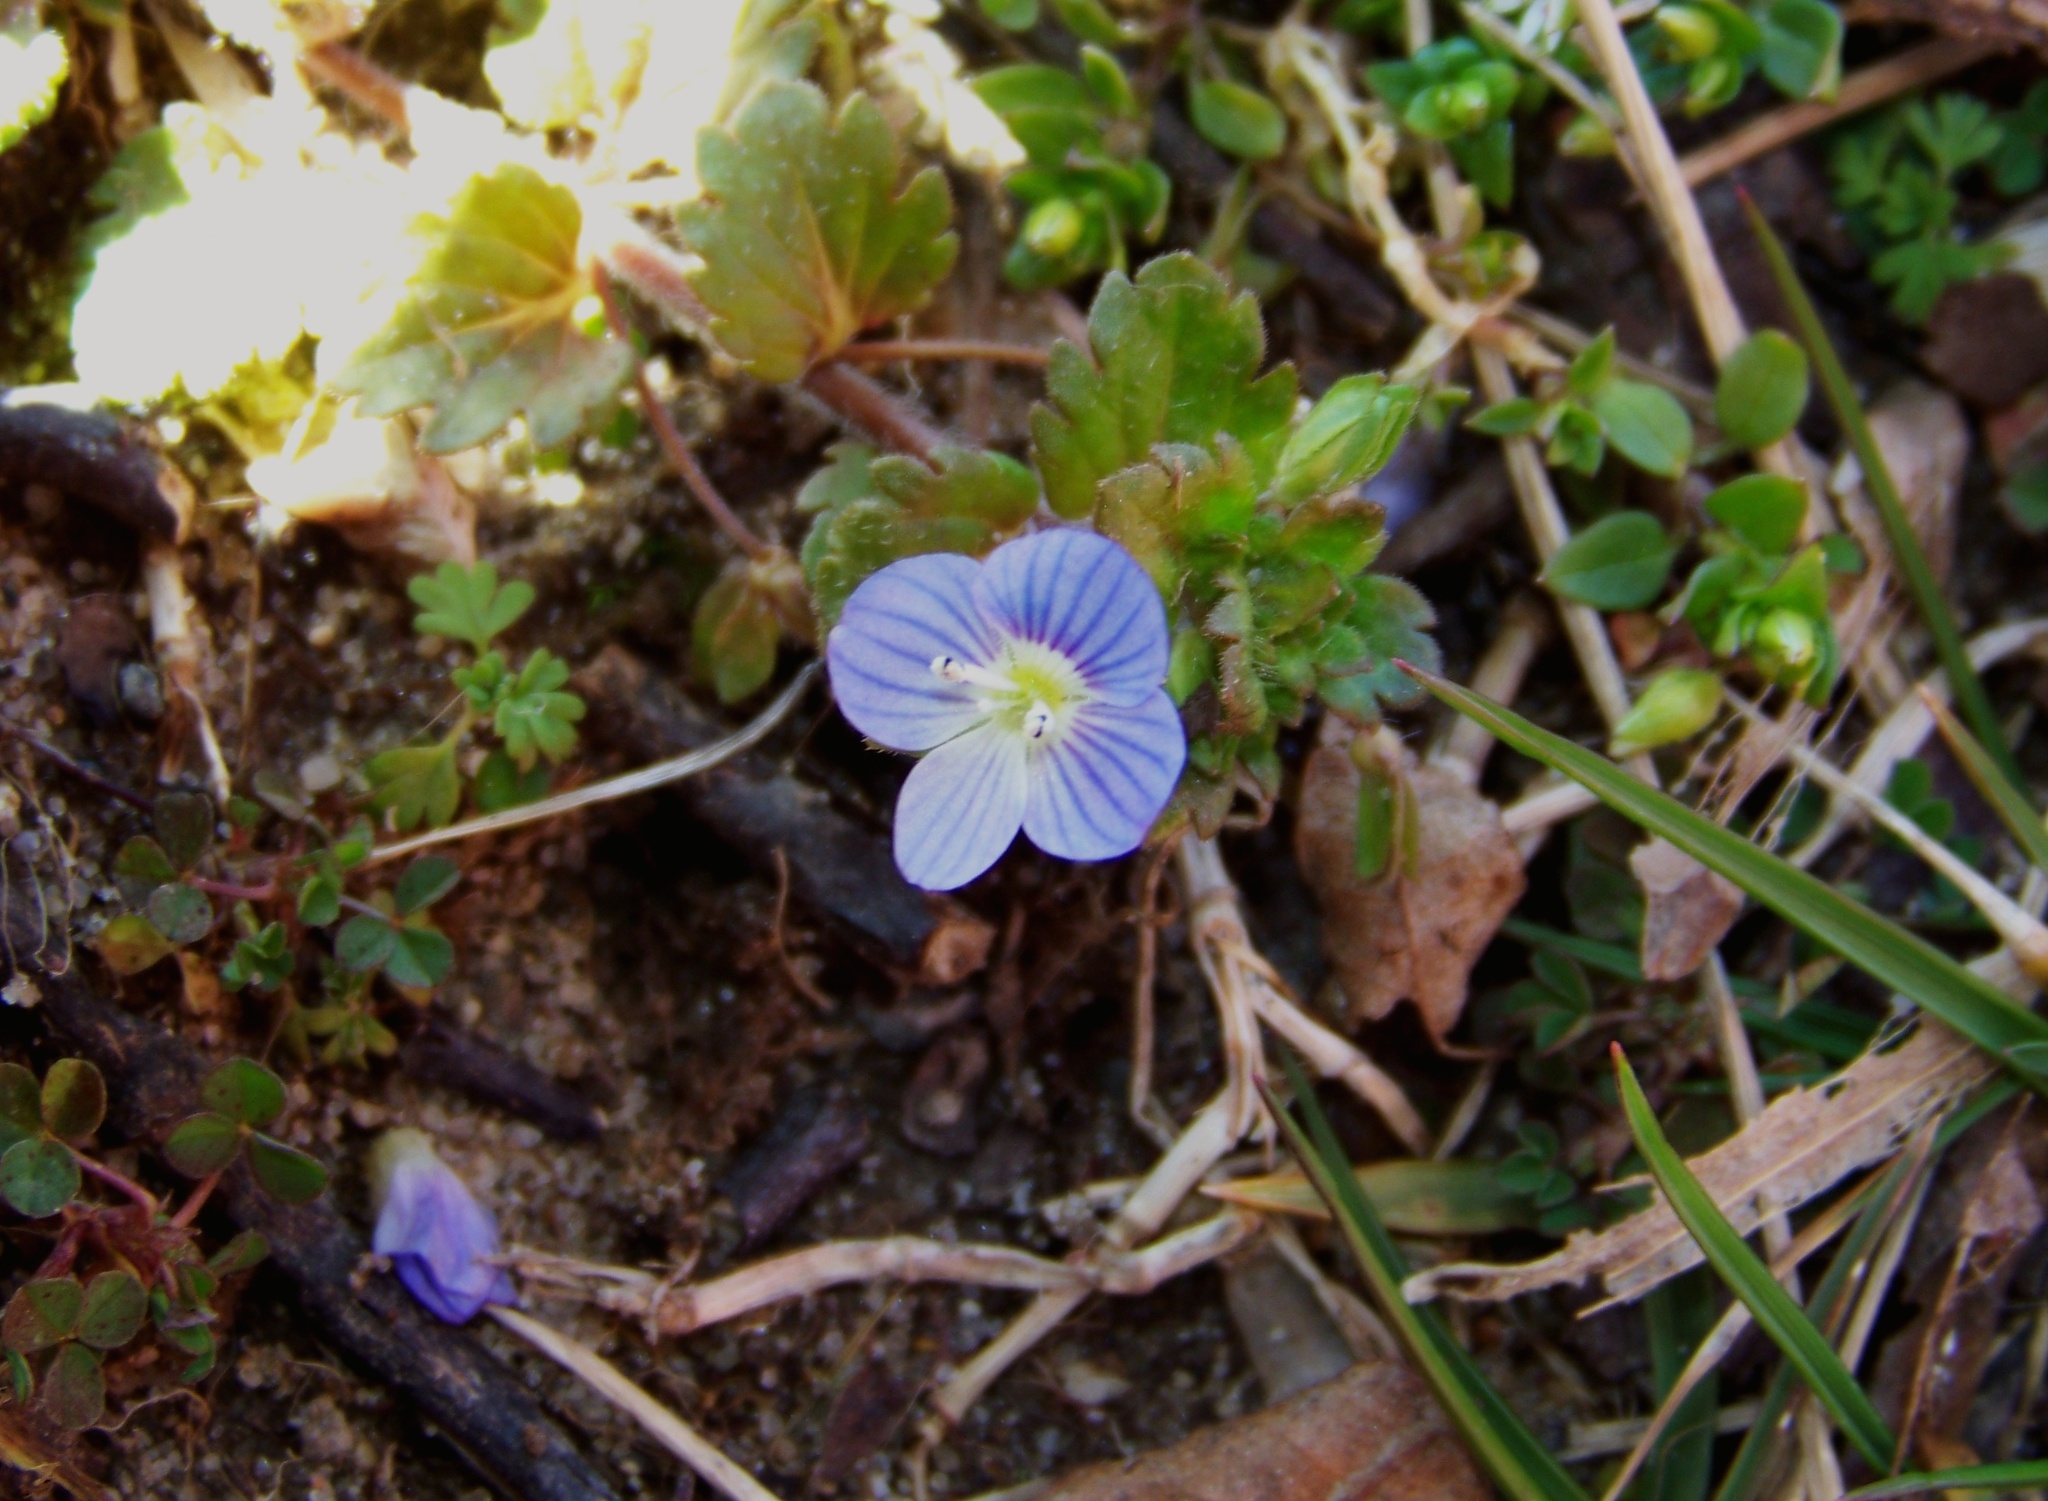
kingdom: Plantae
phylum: Tracheophyta
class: Magnoliopsida
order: Lamiales
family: Plantaginaceae
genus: Veronica
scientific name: Veronica persica
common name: Common field-speedwell
